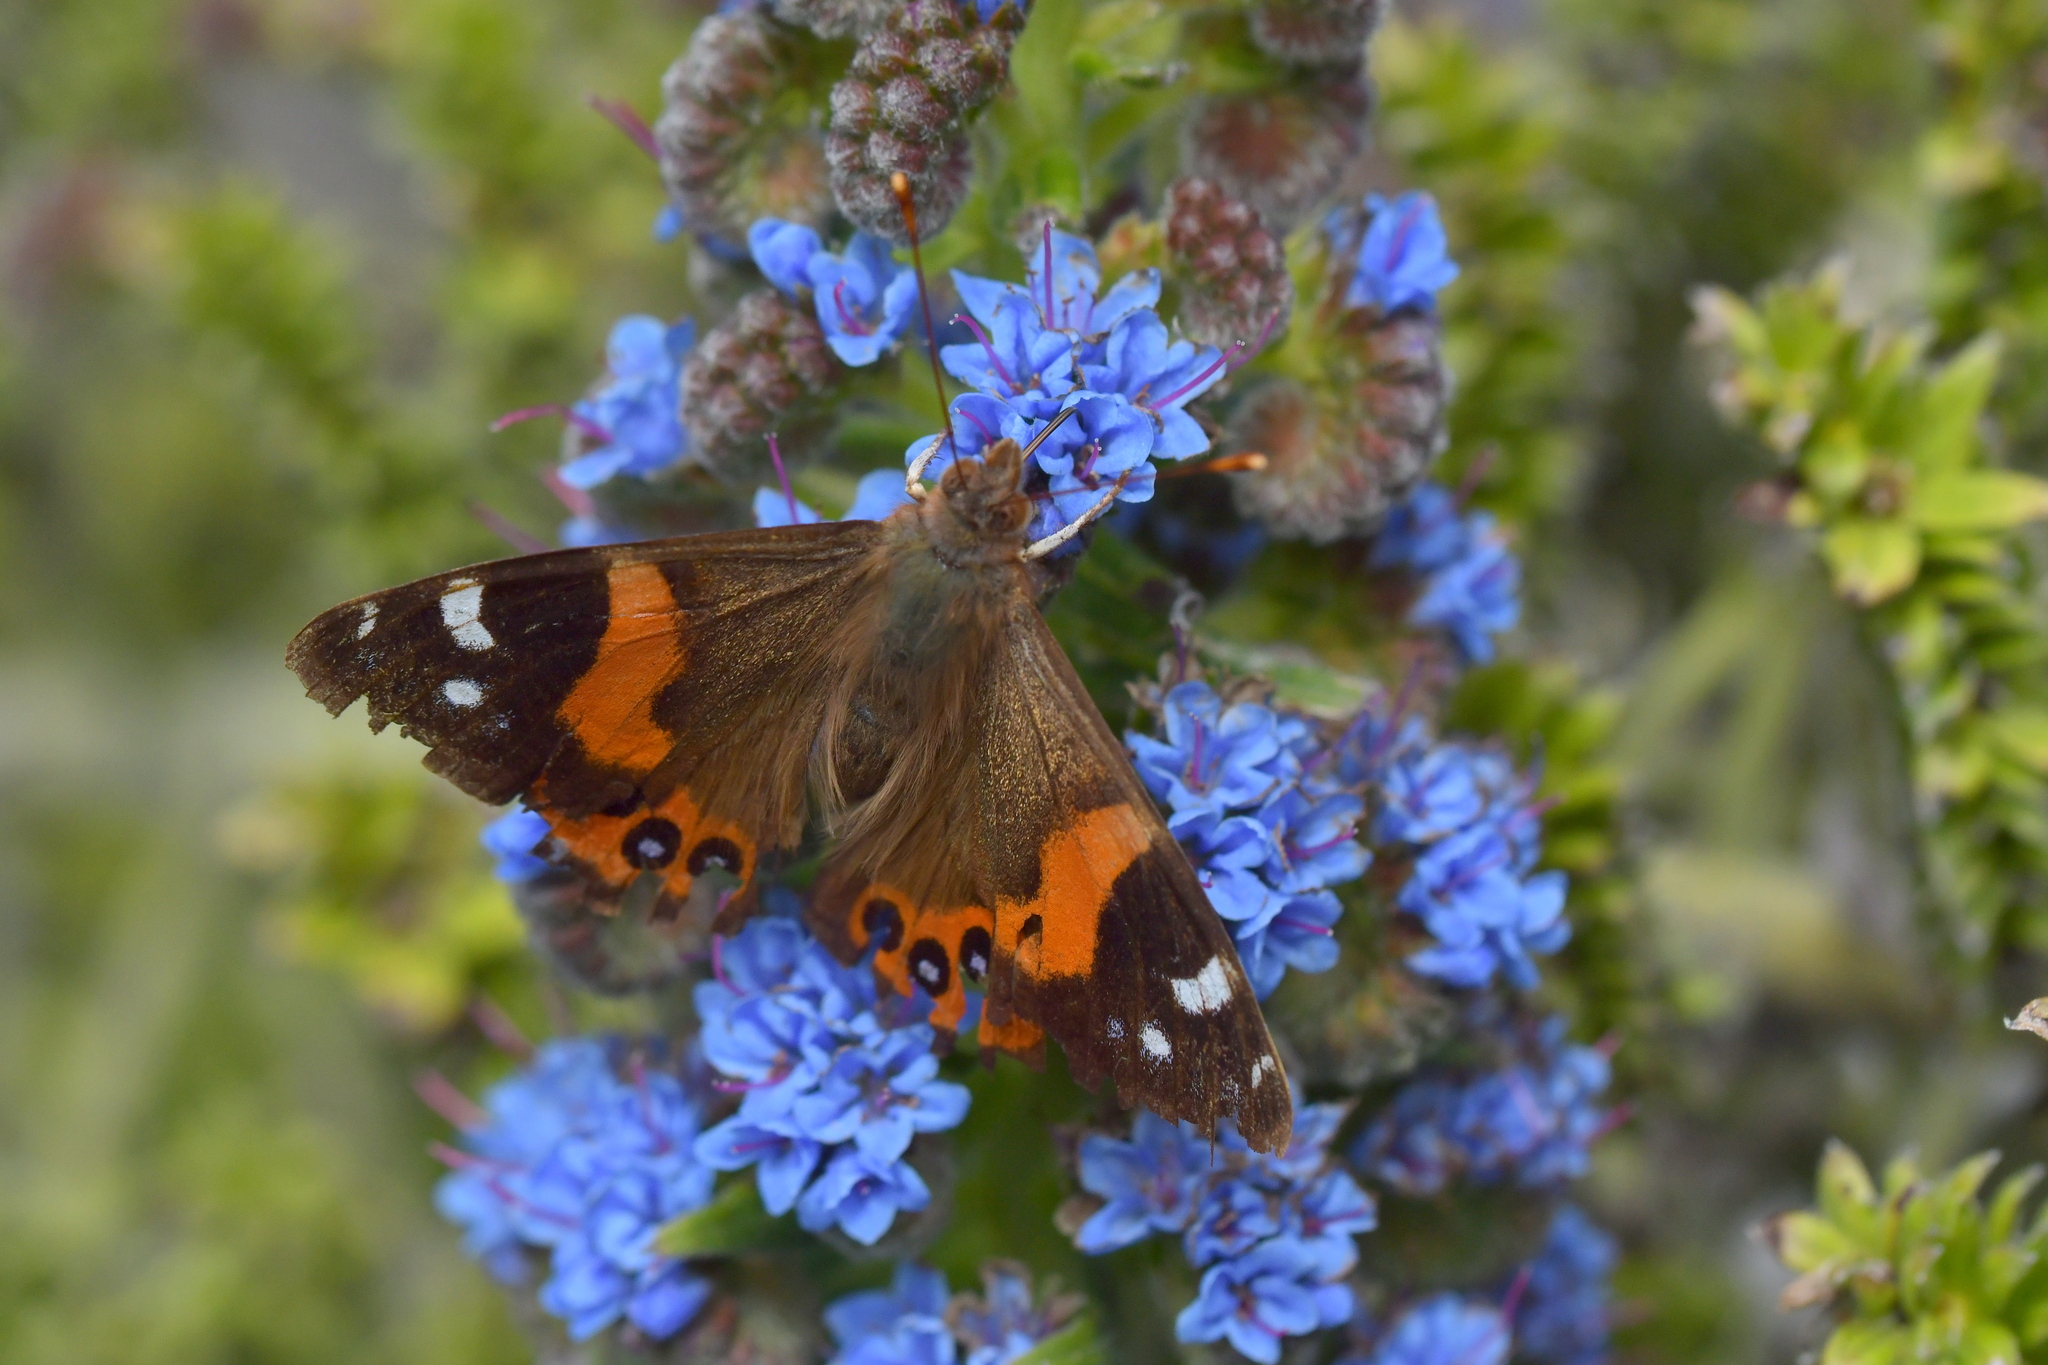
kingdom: Animalia
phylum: Arthropoda
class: Insecta
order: Lepidoptera
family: Nymphalidae
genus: Vanessa
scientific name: Vanessa gonerilla
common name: New zealand red admiral
